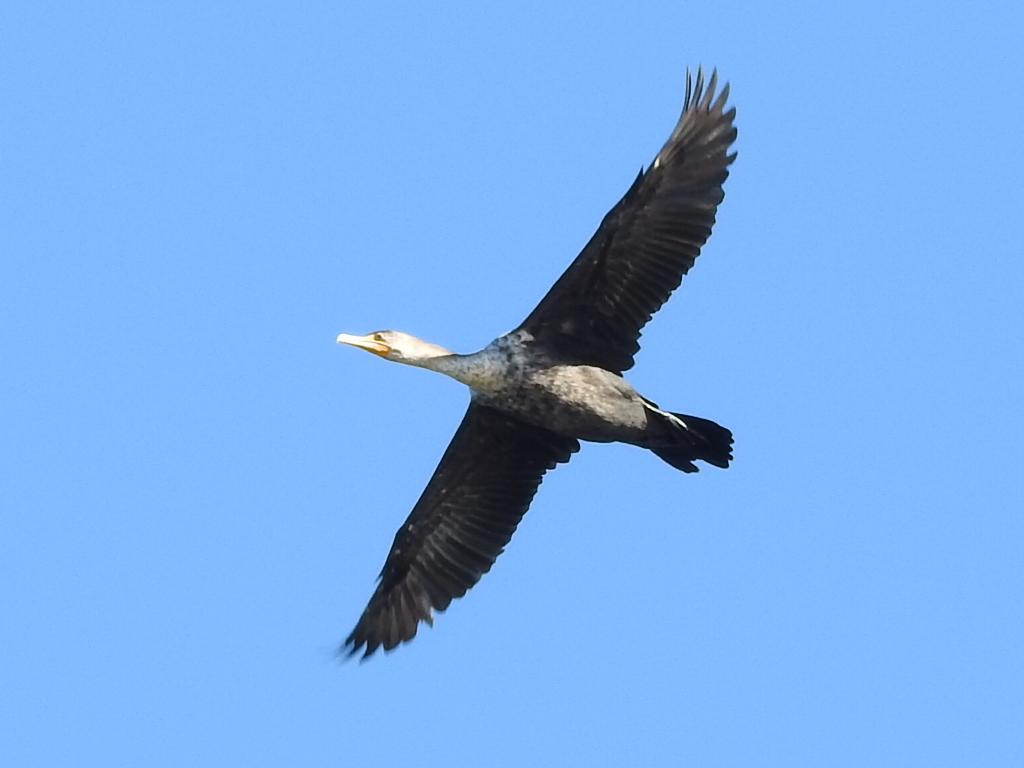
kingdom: Animalia
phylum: Chordata
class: Aves
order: Suliformes
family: Phalacrocoracidae
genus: Phalacrocorax
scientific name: Phalacrocorax auritus
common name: Double-crested cormorant
